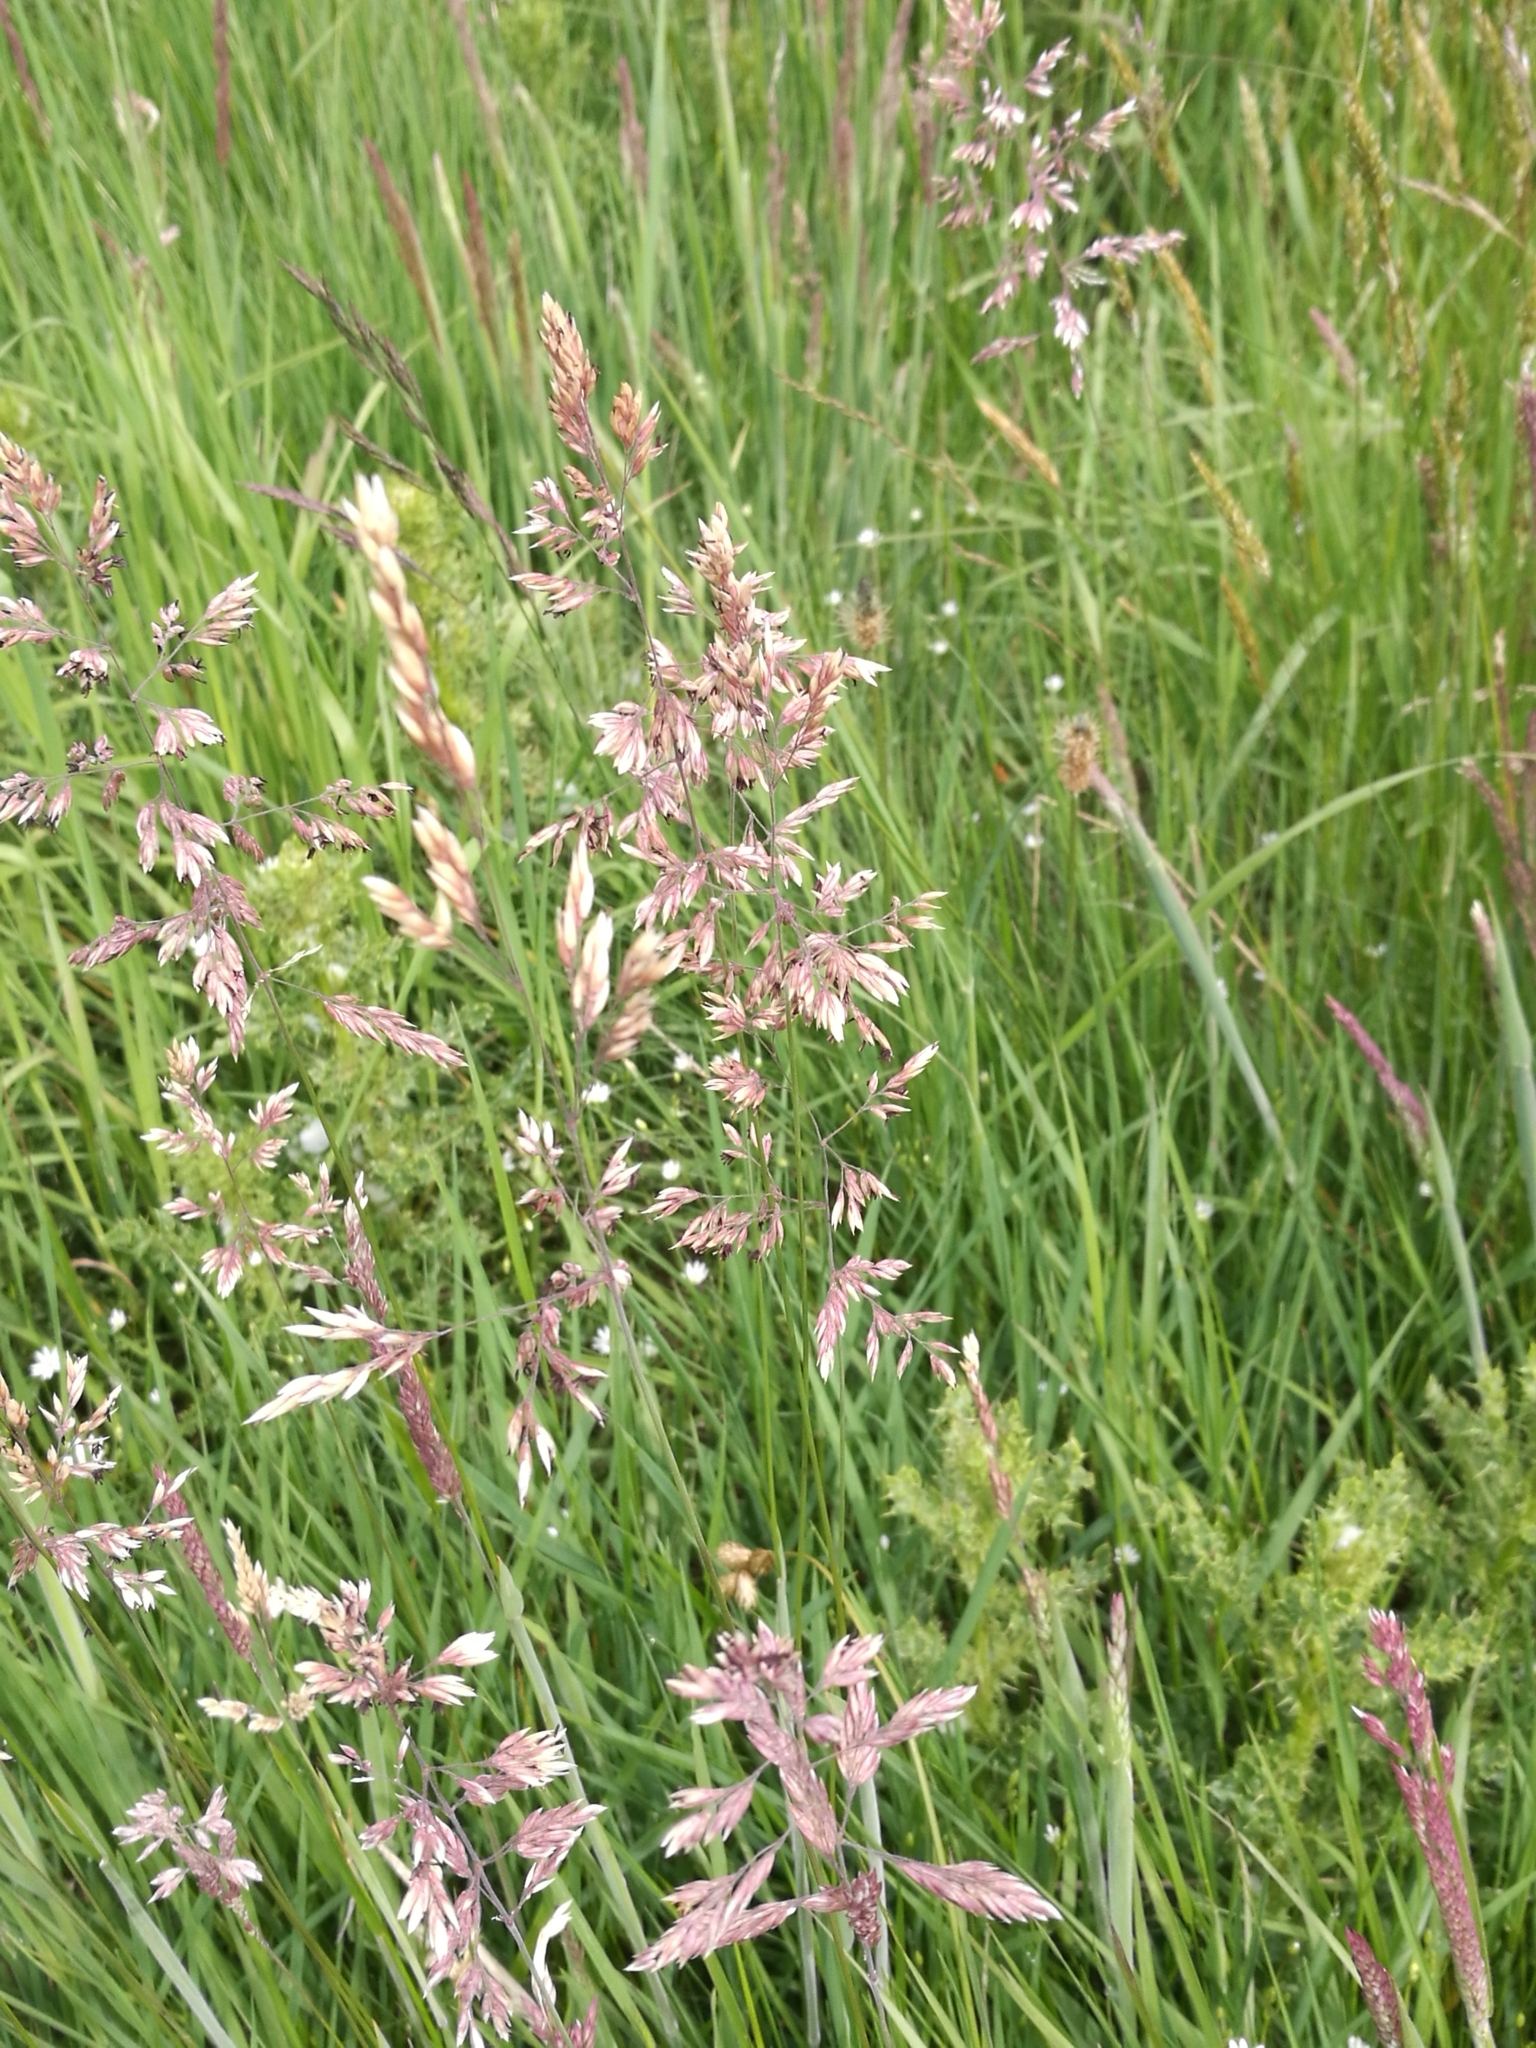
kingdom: Plantae
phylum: Tracheophyta
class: Liliopsida
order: Poales
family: Poaceae
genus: Holcus
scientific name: Holcus lanatus
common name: Yorkshire-fog
